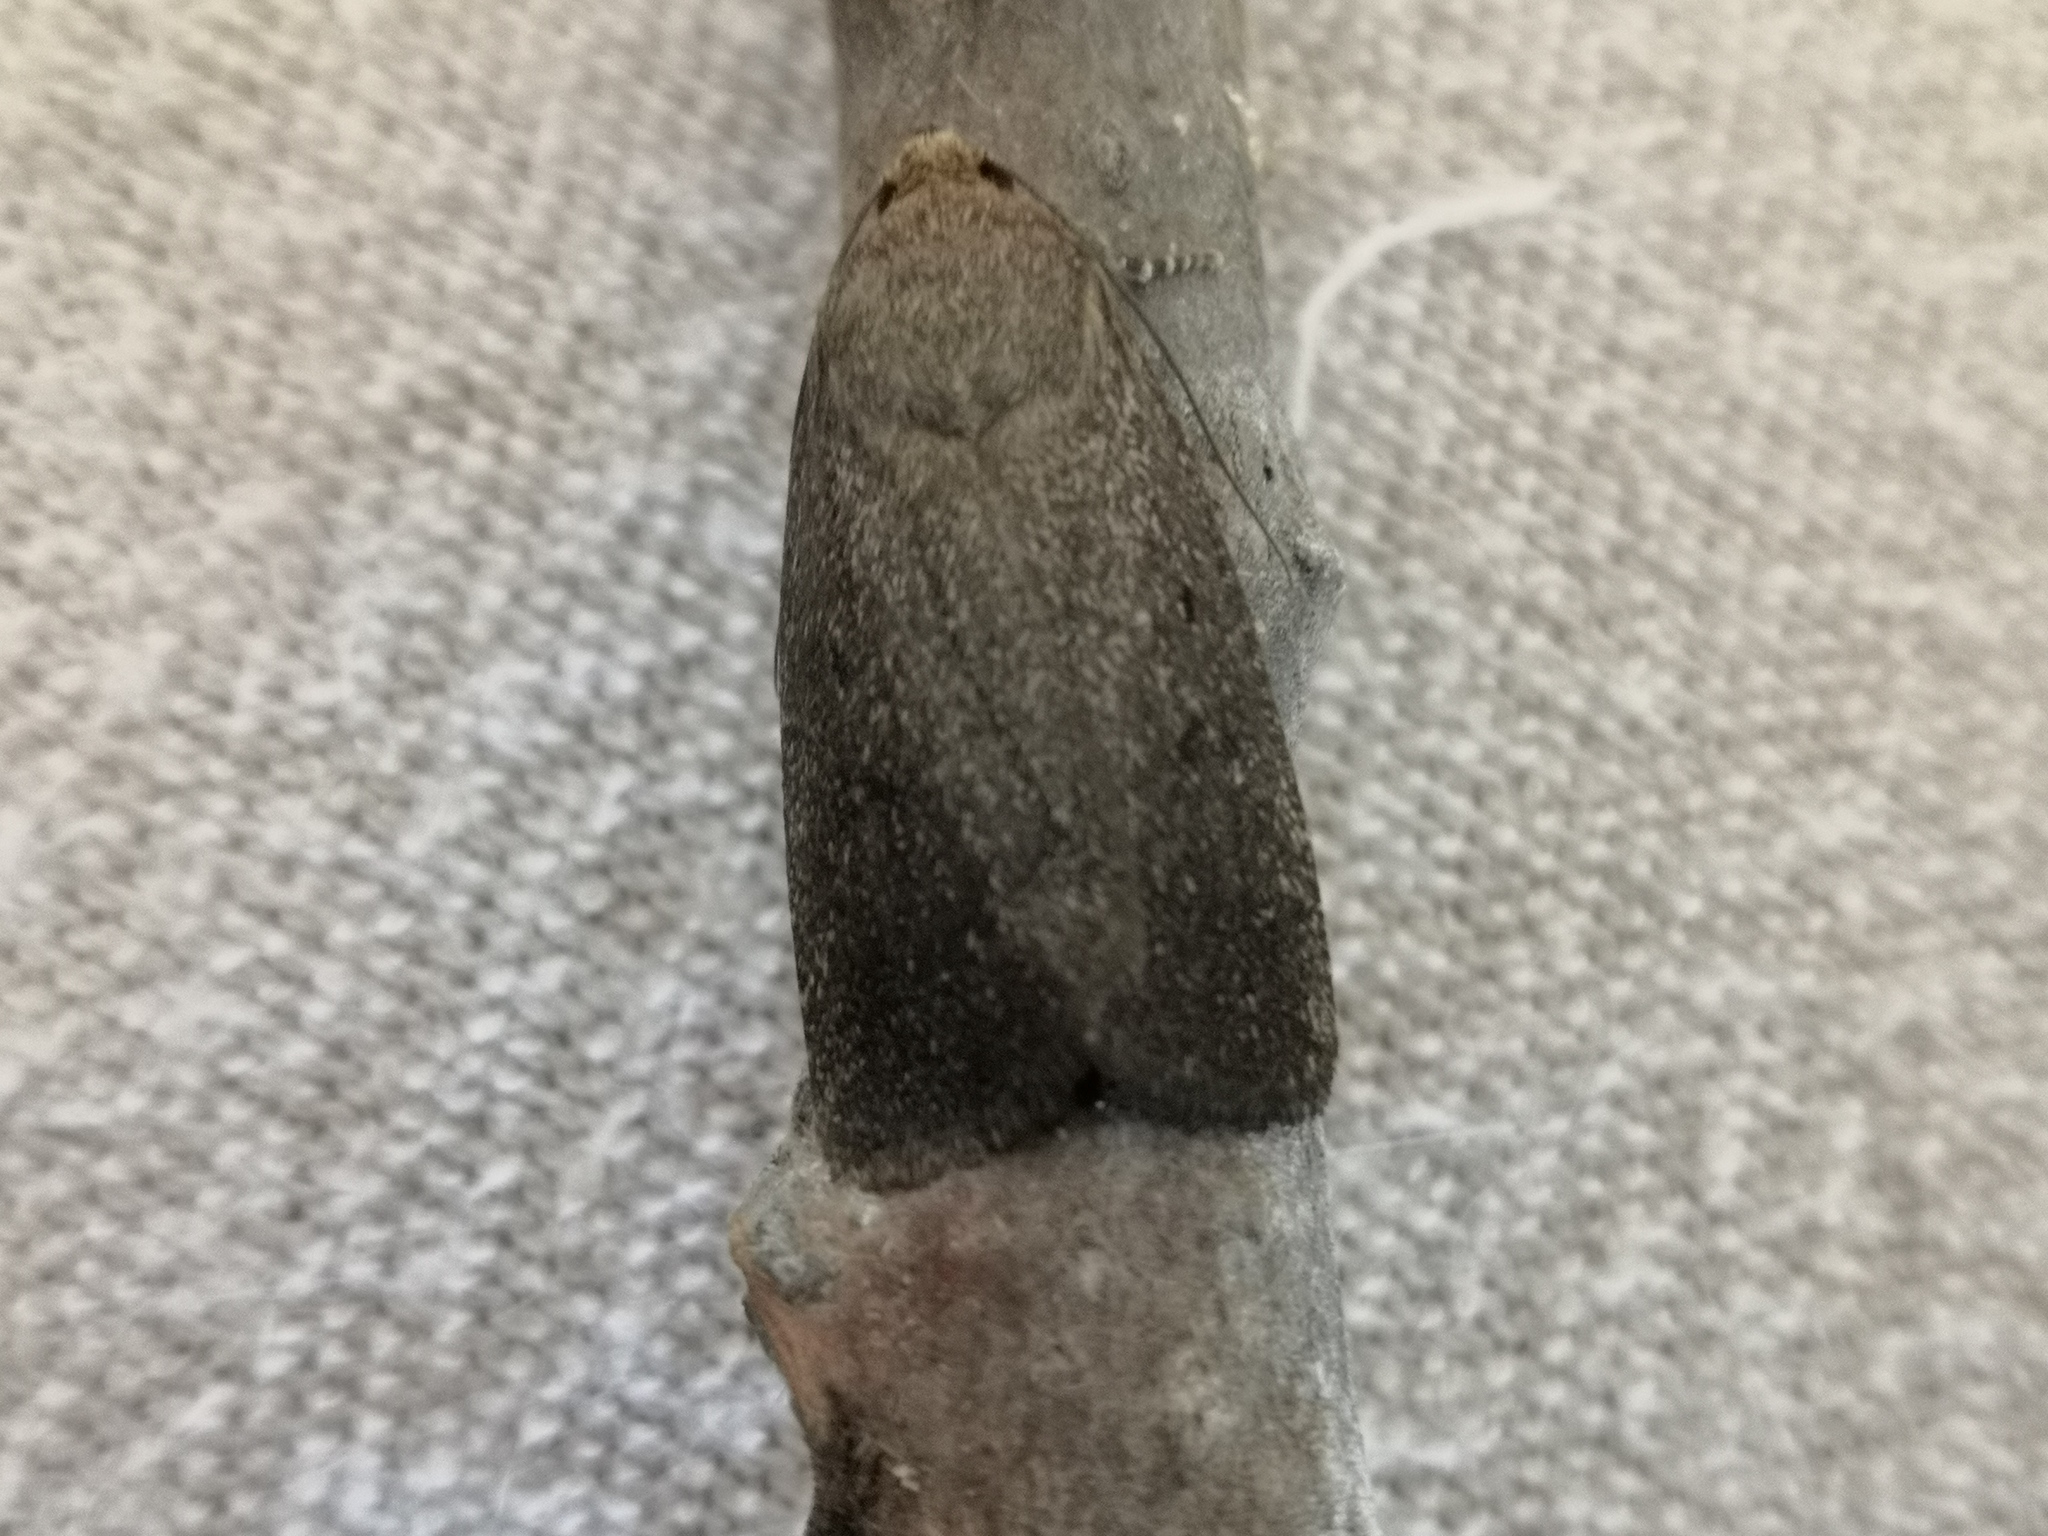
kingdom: Animalia
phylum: Arthropoda
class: Insecta
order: Lepidoptera
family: Noctuidae
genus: Amphipyra
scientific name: Amphipyra tragopoginis
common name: Mouse moth
